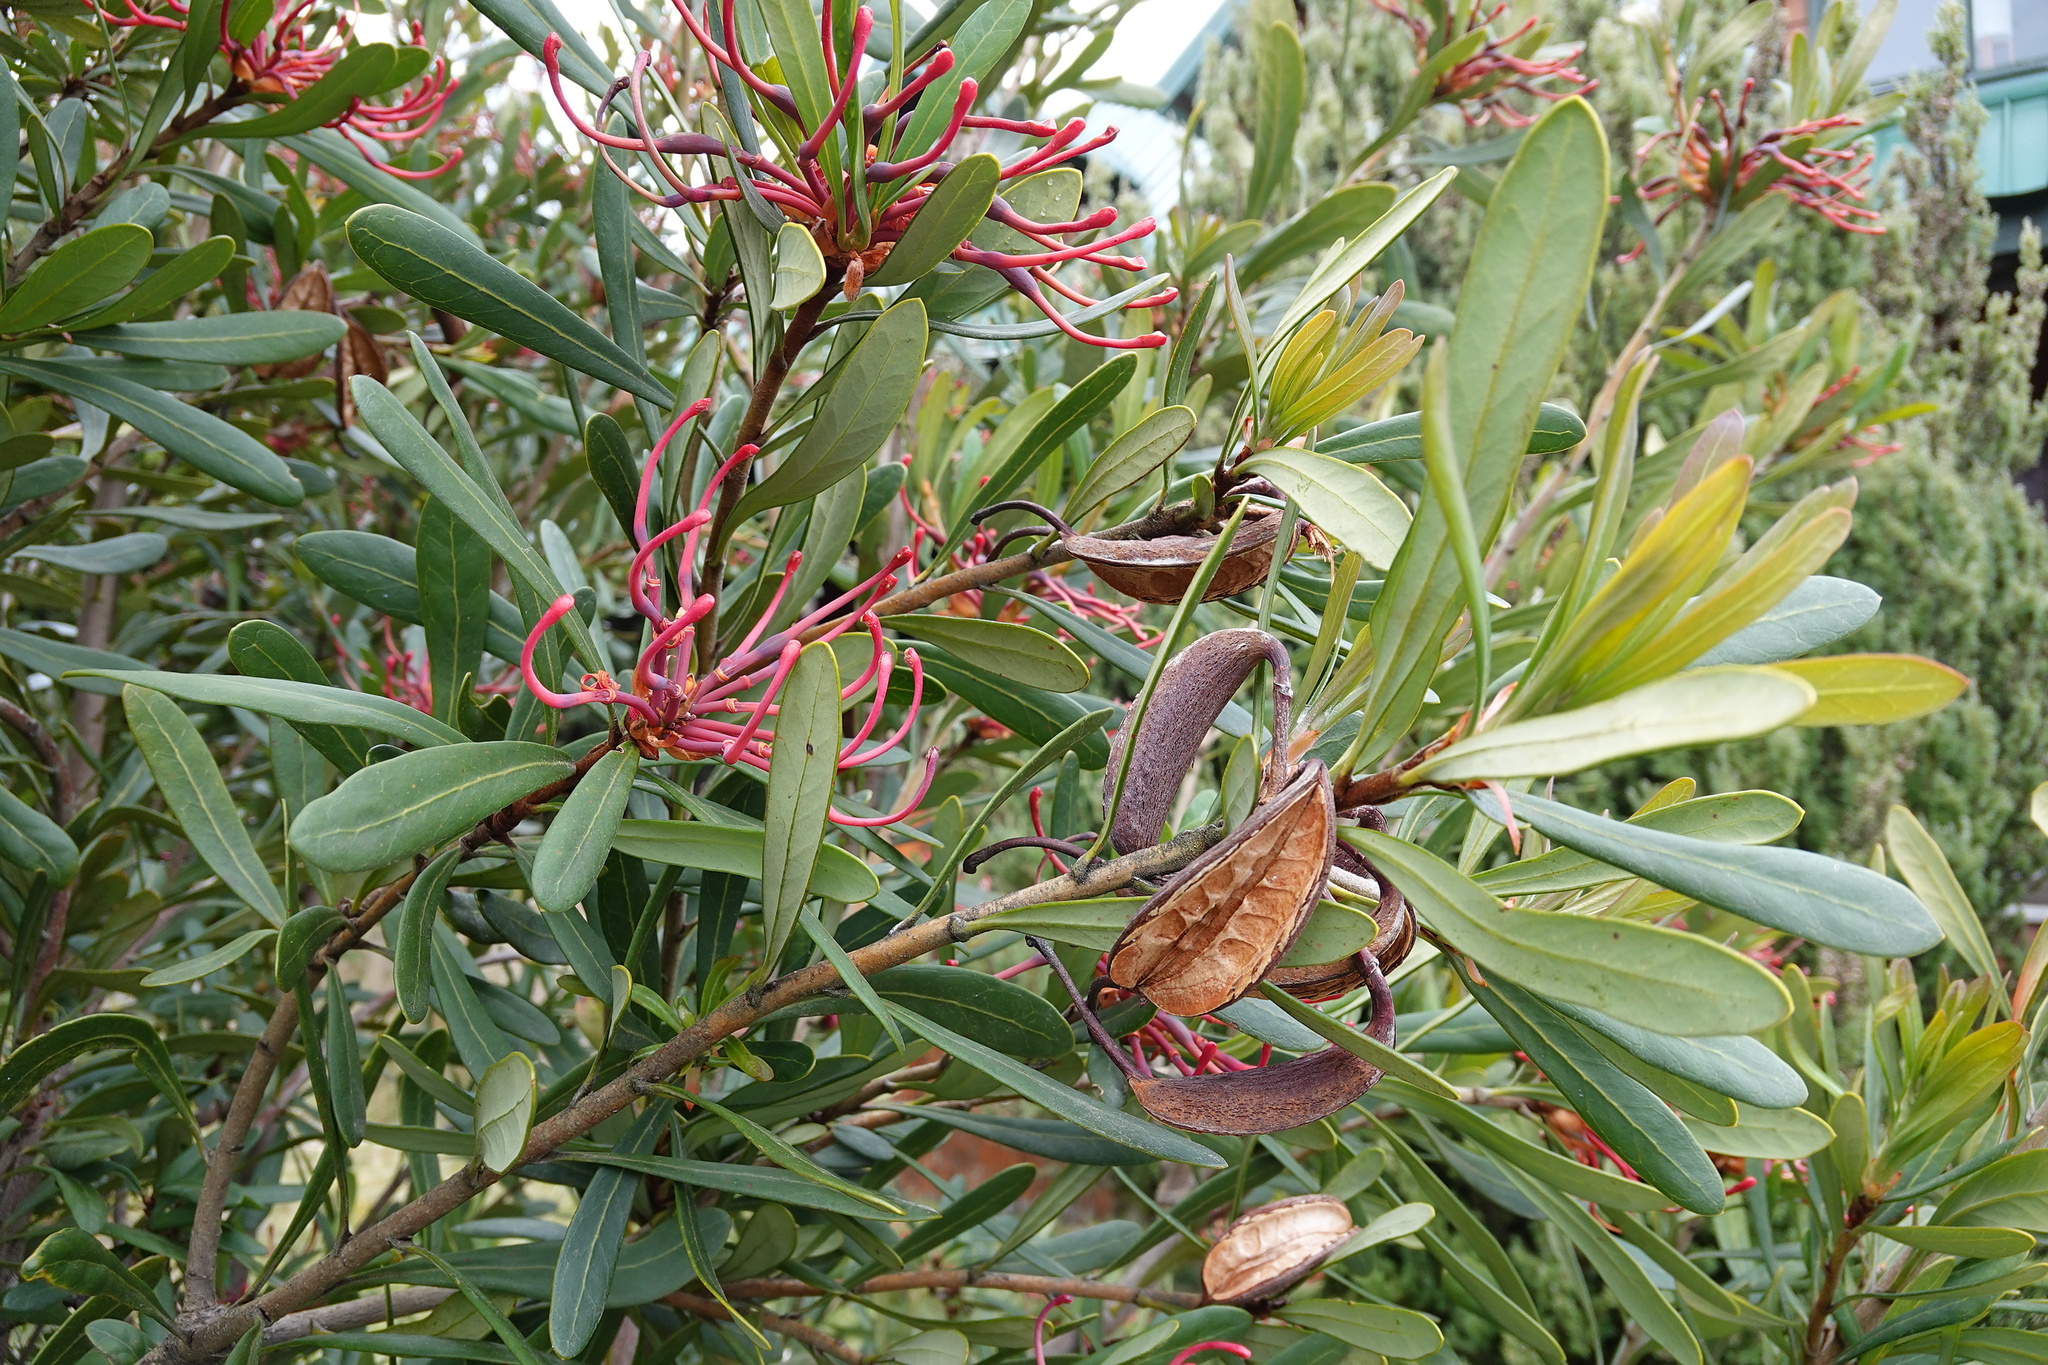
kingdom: Plantae
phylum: Tracheophyta
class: Magnoliopsida
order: Proteales
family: Proteaceae
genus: Telopea
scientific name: Telopea truncata
